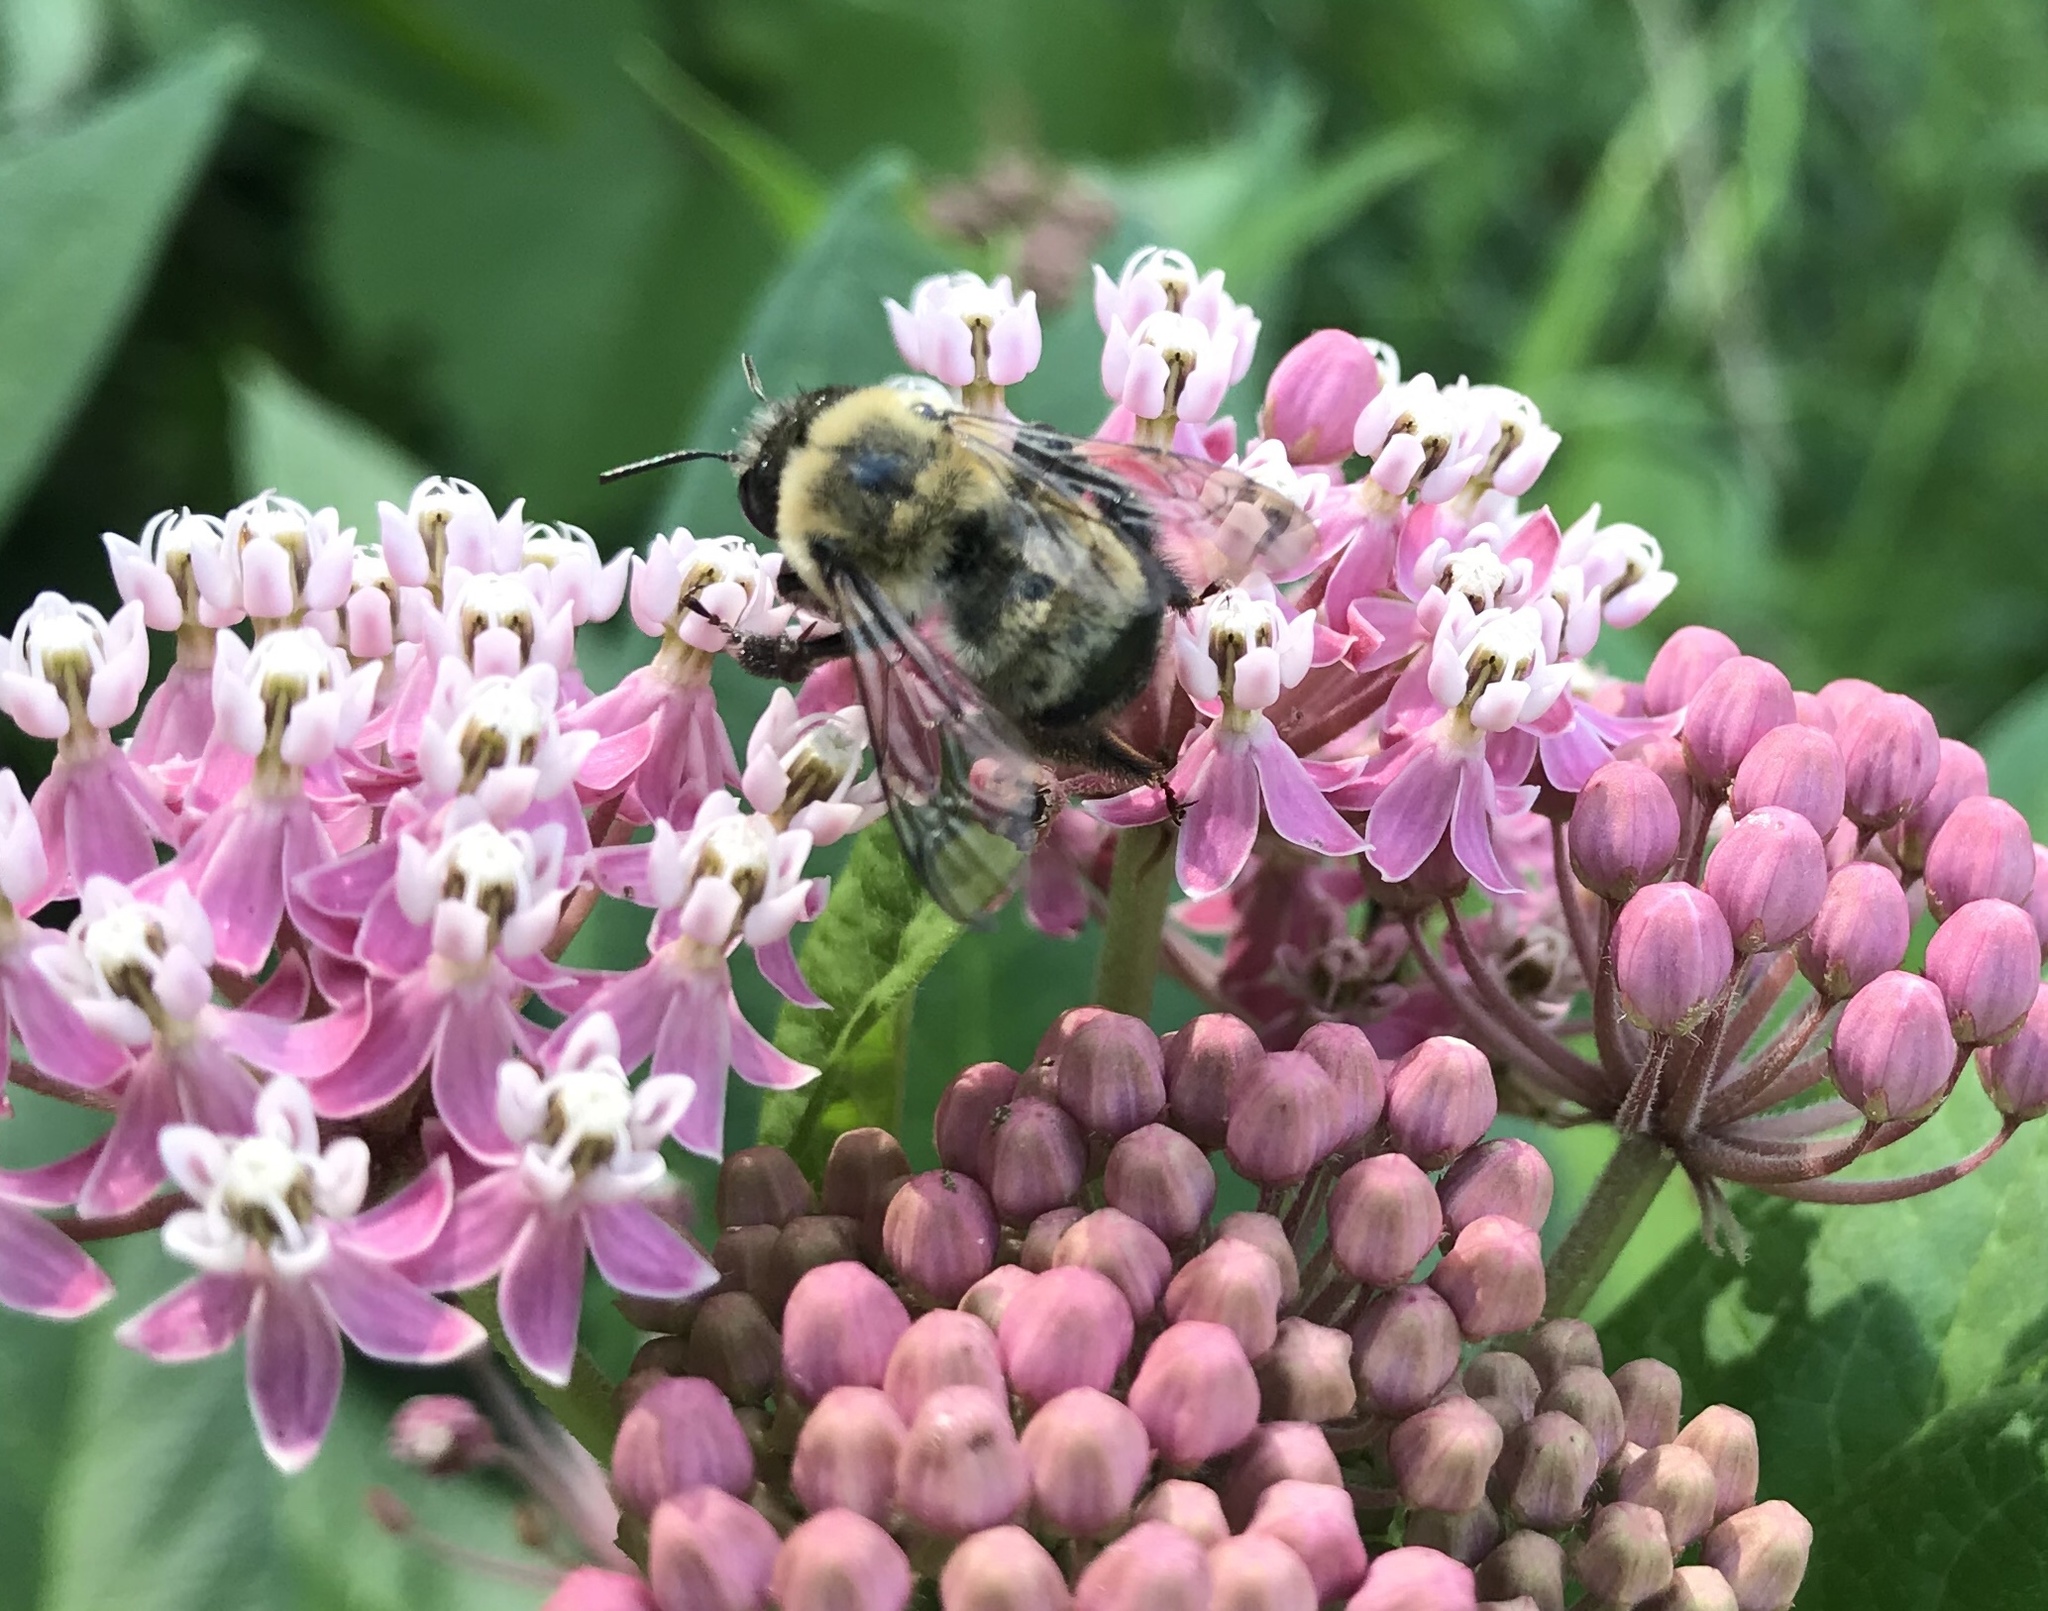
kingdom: Animalia
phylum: Arthropoda
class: Insecta
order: Hymenoptera
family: Apidae
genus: Anthophora
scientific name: Anthophora bomboides
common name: Bumble-bee-mimic digger bee
